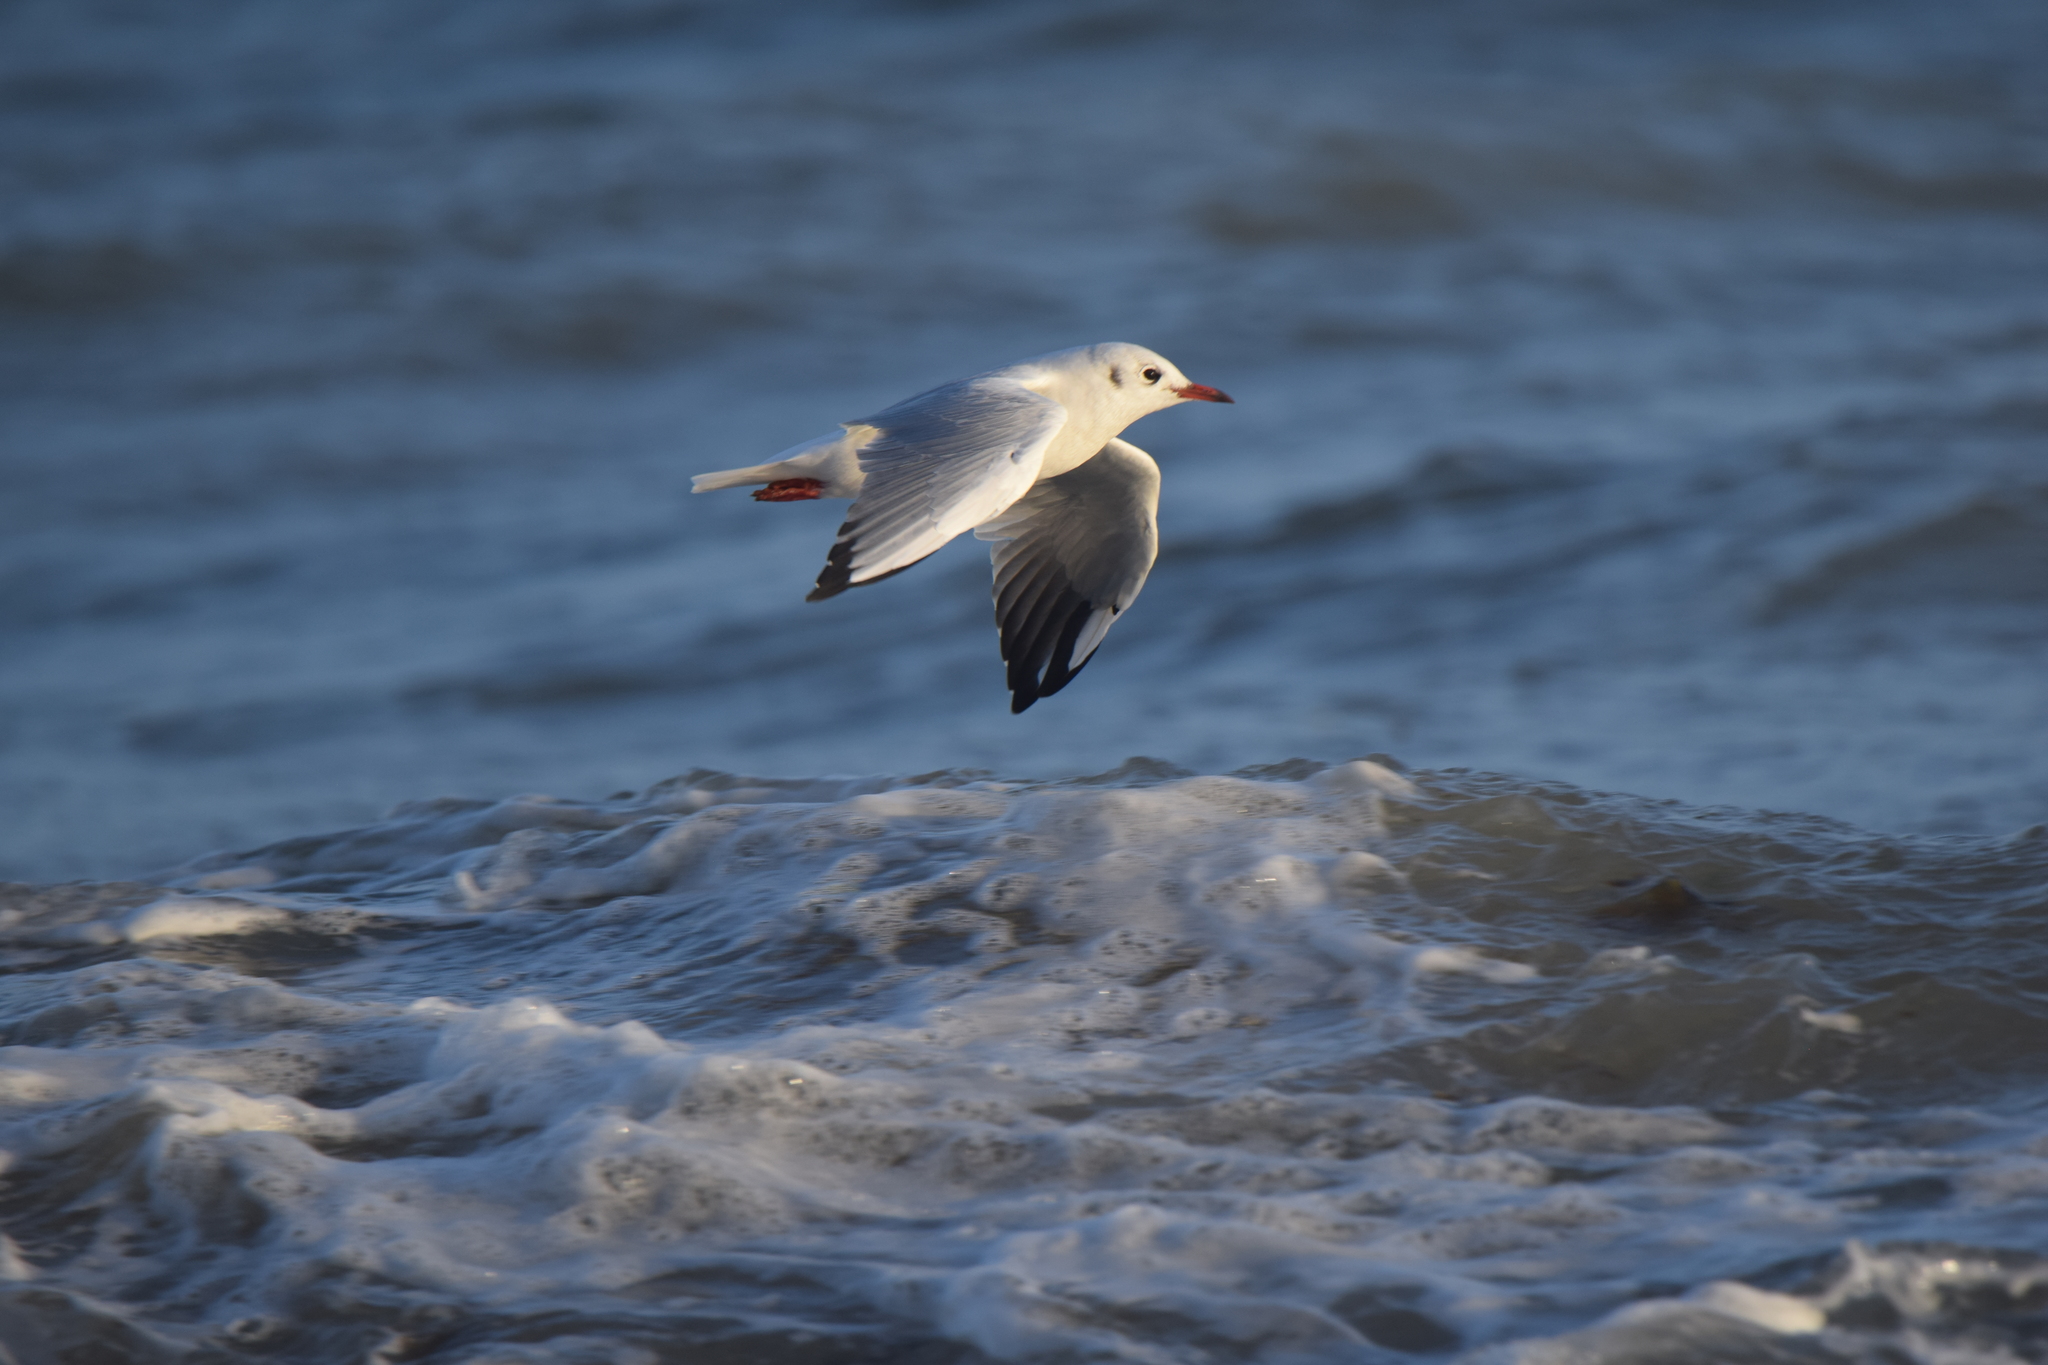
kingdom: Animalia
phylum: Chordata
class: Aves
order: Charadriiformes
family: Laridae
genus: Chroicocephalus
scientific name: Chroicocephalus ridibundus
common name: Black-headed gull
